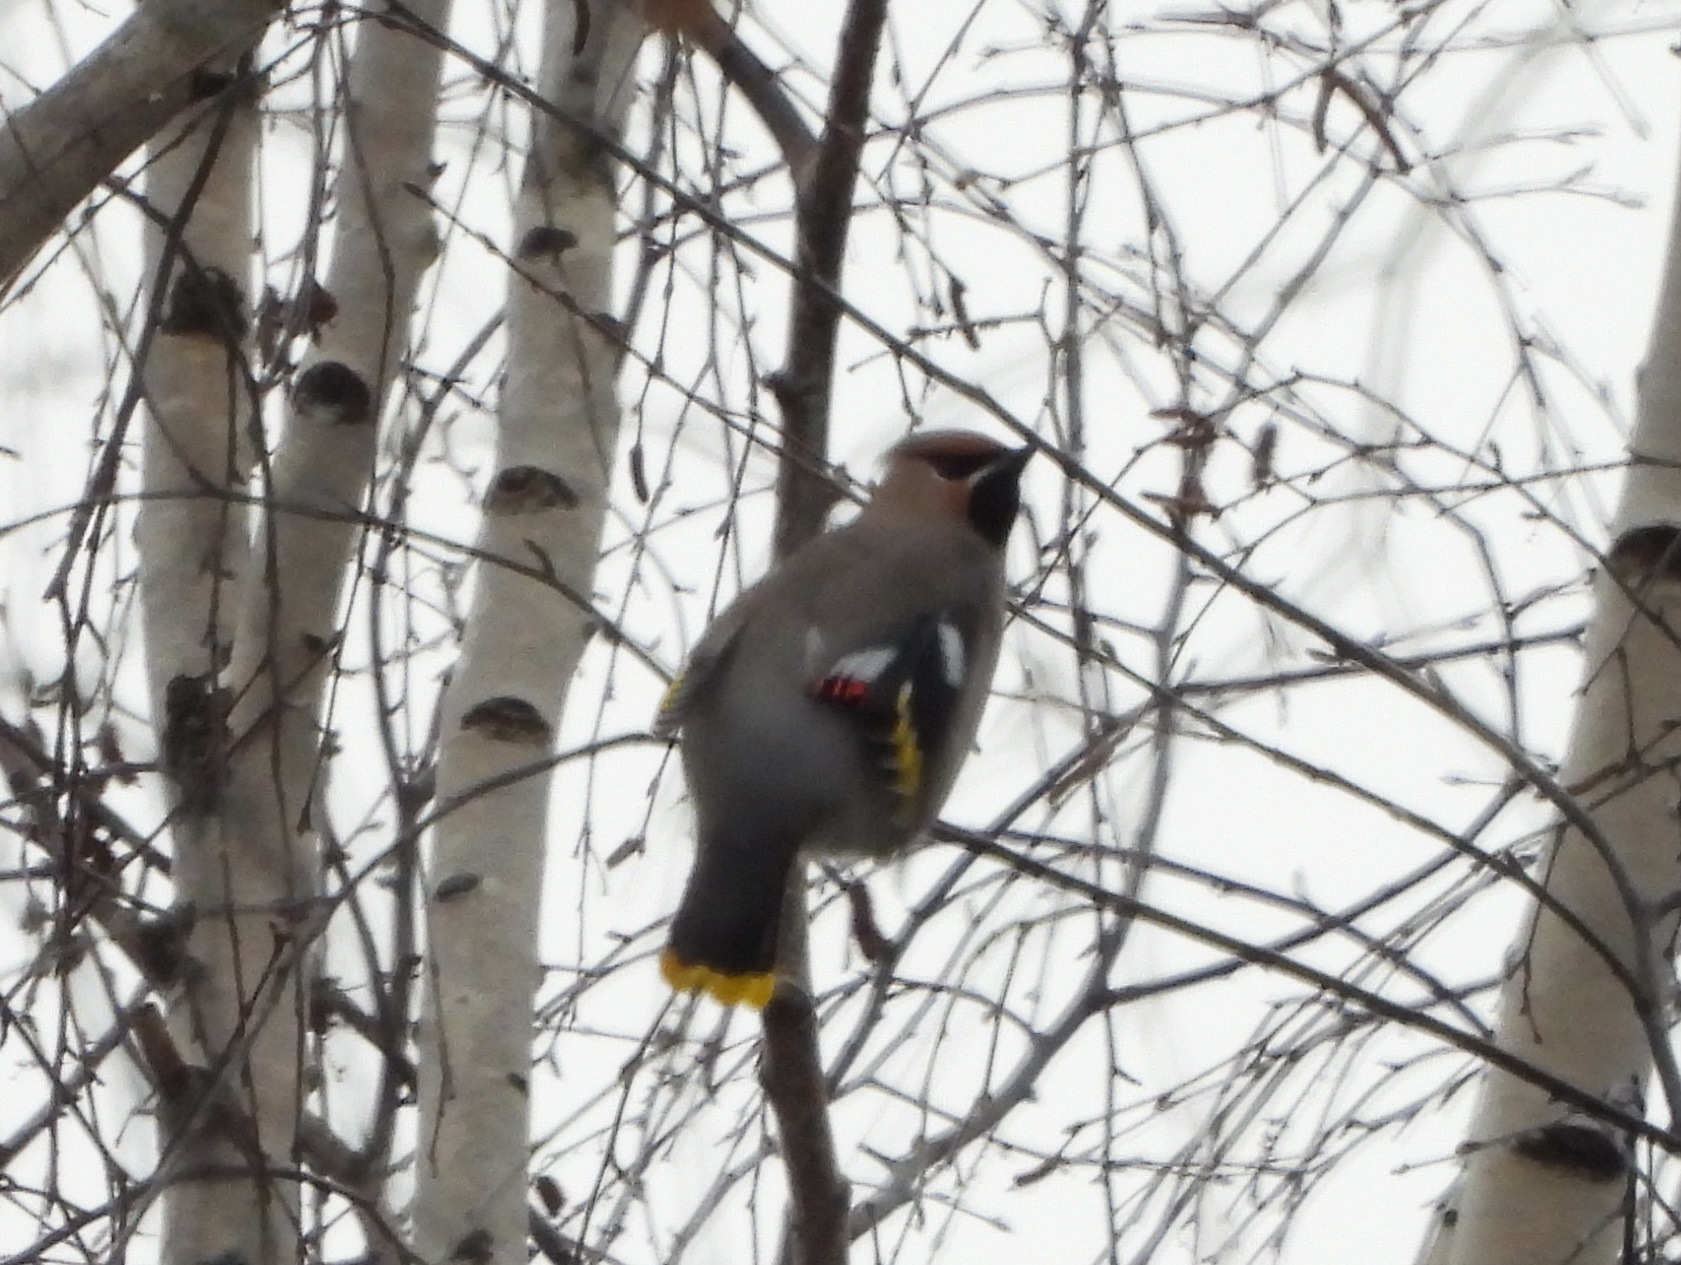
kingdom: Animalia
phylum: Chordata
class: Aves
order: Passeriformes
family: Bombycillidae
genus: Bombycilla
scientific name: Bombycilla garrulus
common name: Bohemian waxwing
